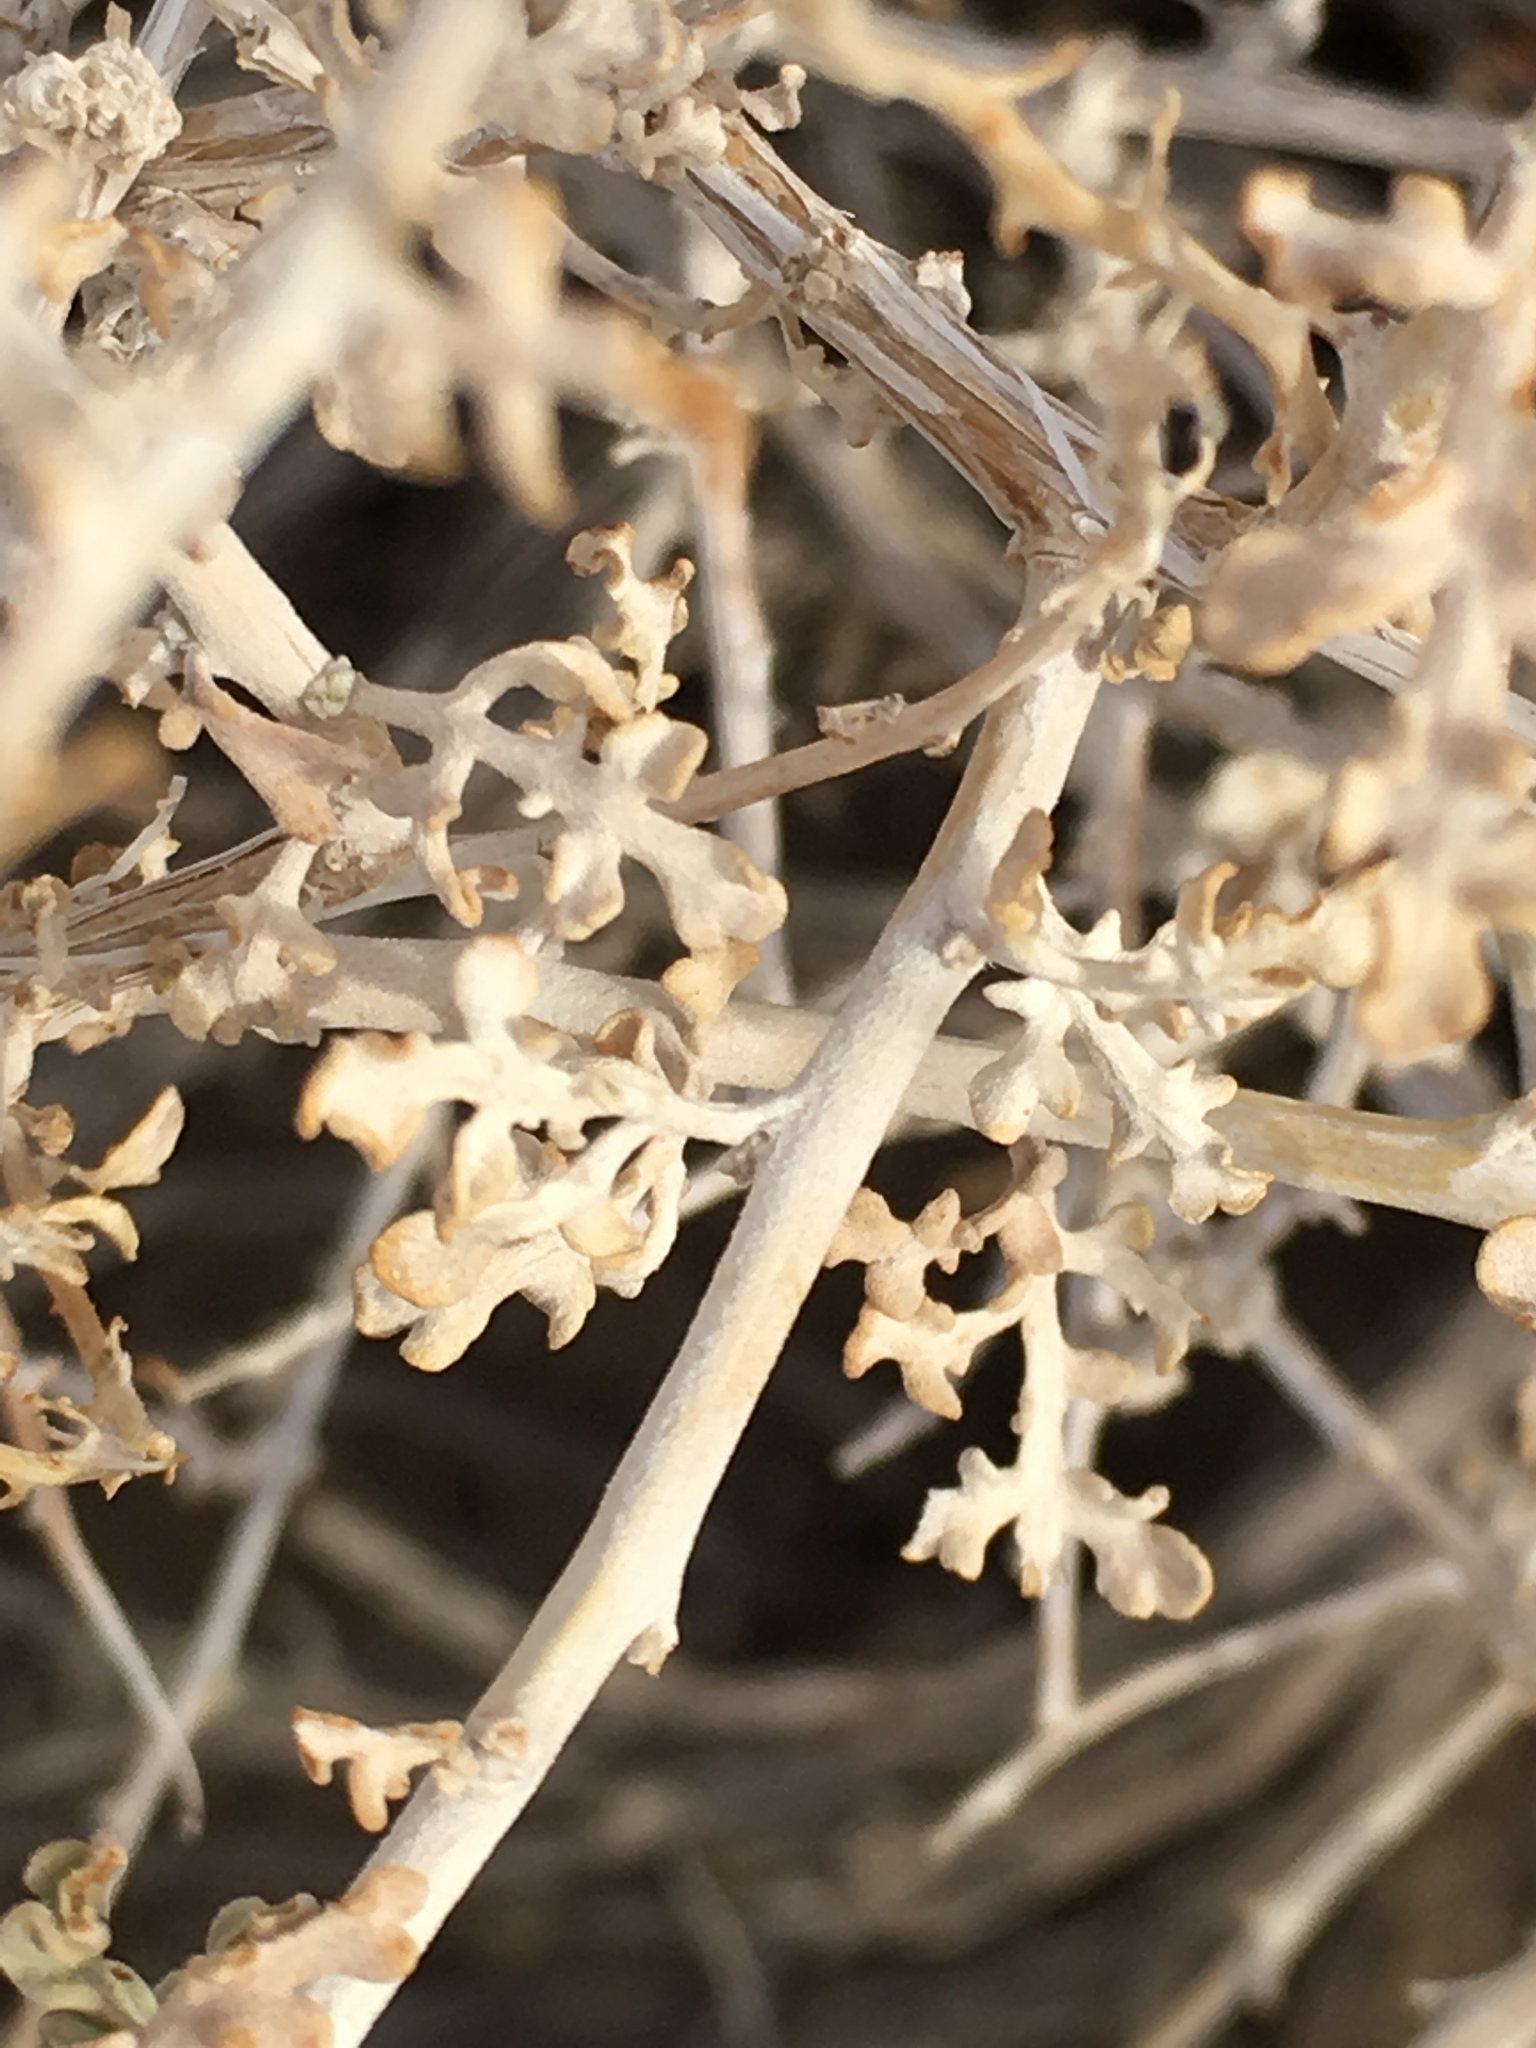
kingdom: Plantae
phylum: Tracheophyta
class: Magnoliopsida
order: Asterales
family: Asteraceae
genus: Ambrosia
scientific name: Ambrosia dumosa
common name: Bur-sage
